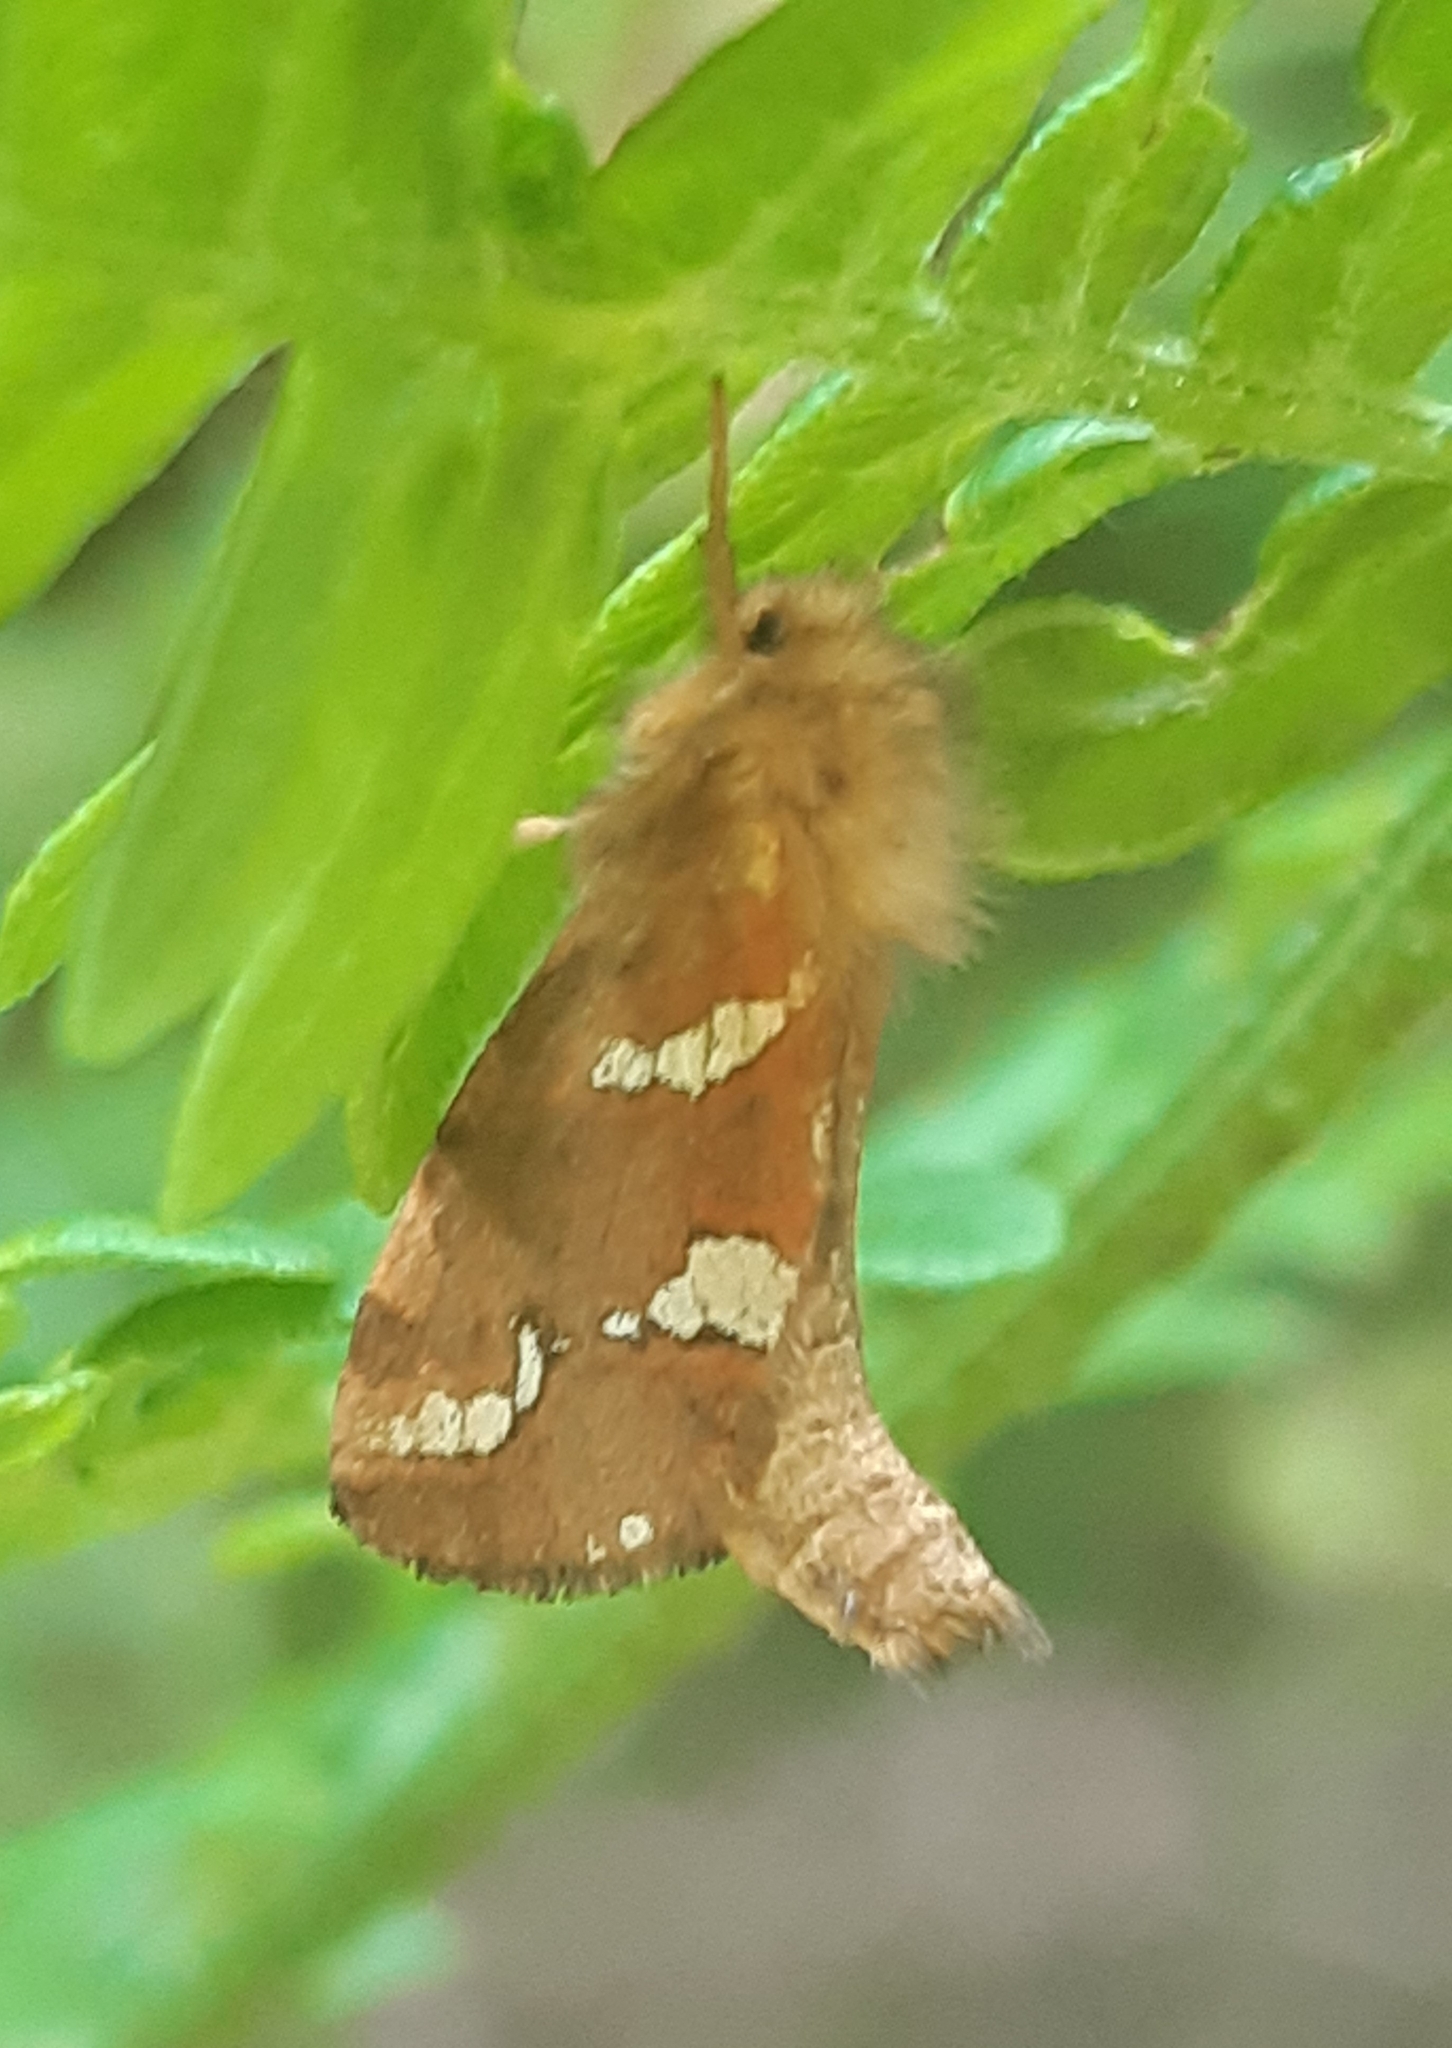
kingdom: Animalia
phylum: Arthropoda
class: Insecta
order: Lepidoptera
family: Hepialidae
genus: Phymatopus
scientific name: Phymatopus hecta
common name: Gold swift
